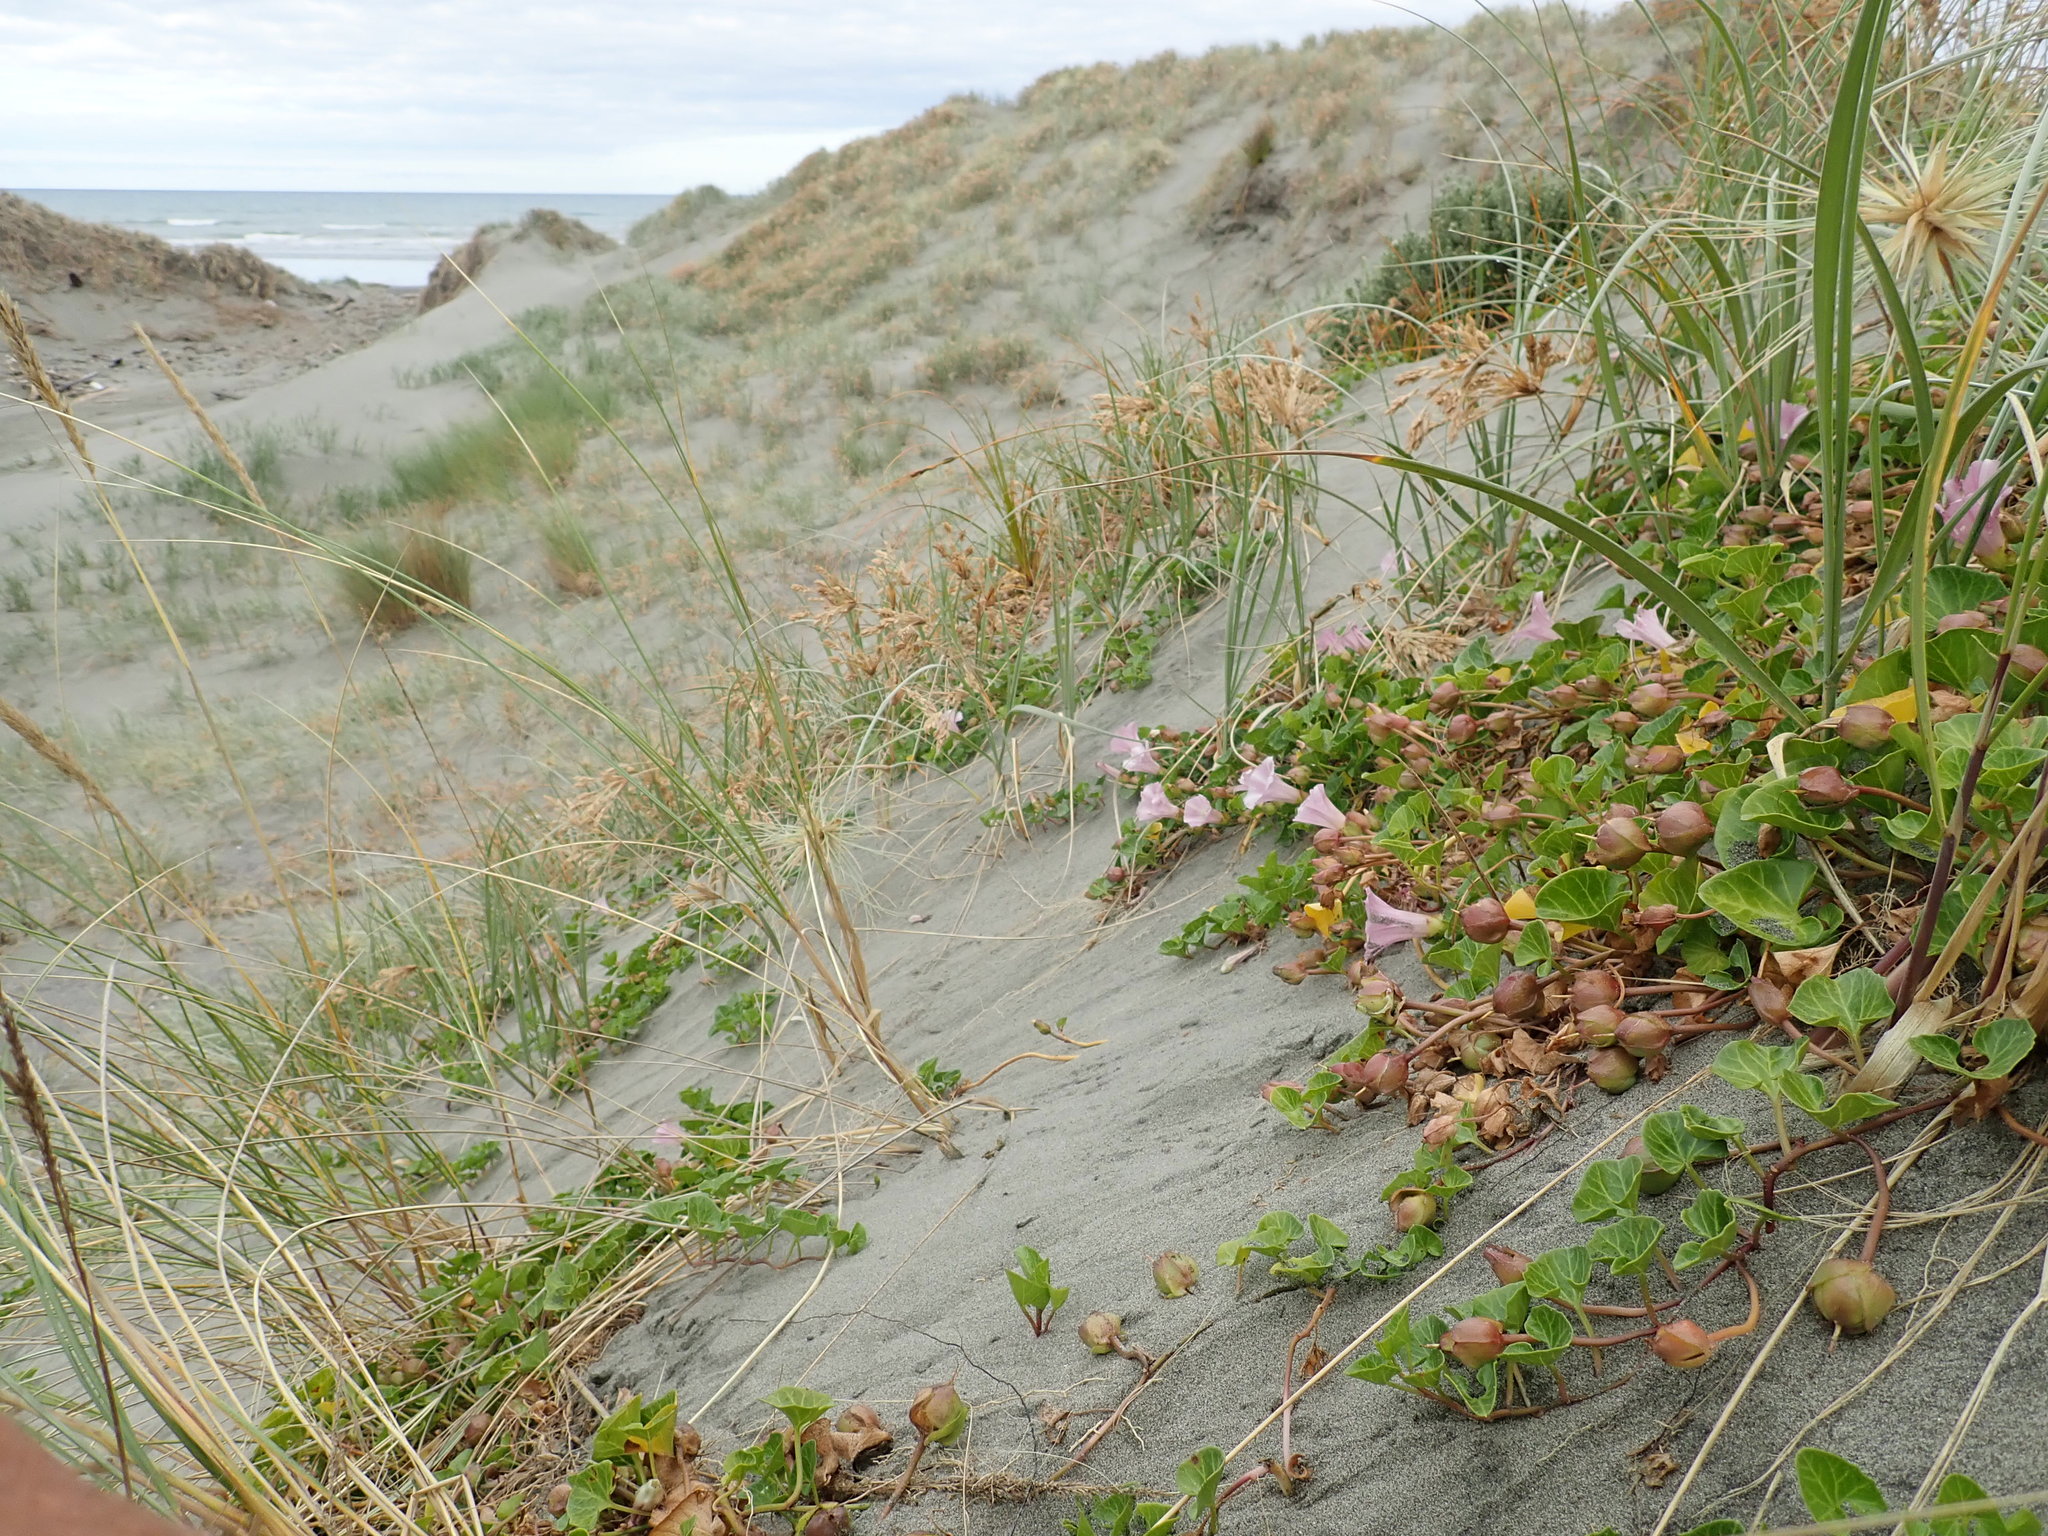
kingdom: Plantae
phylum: Tracheophyta
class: Magnoliopsida
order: Solanales
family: Convolvulaceae
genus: Calystegia
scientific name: Calystegia soldanella
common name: Sea bindweed
